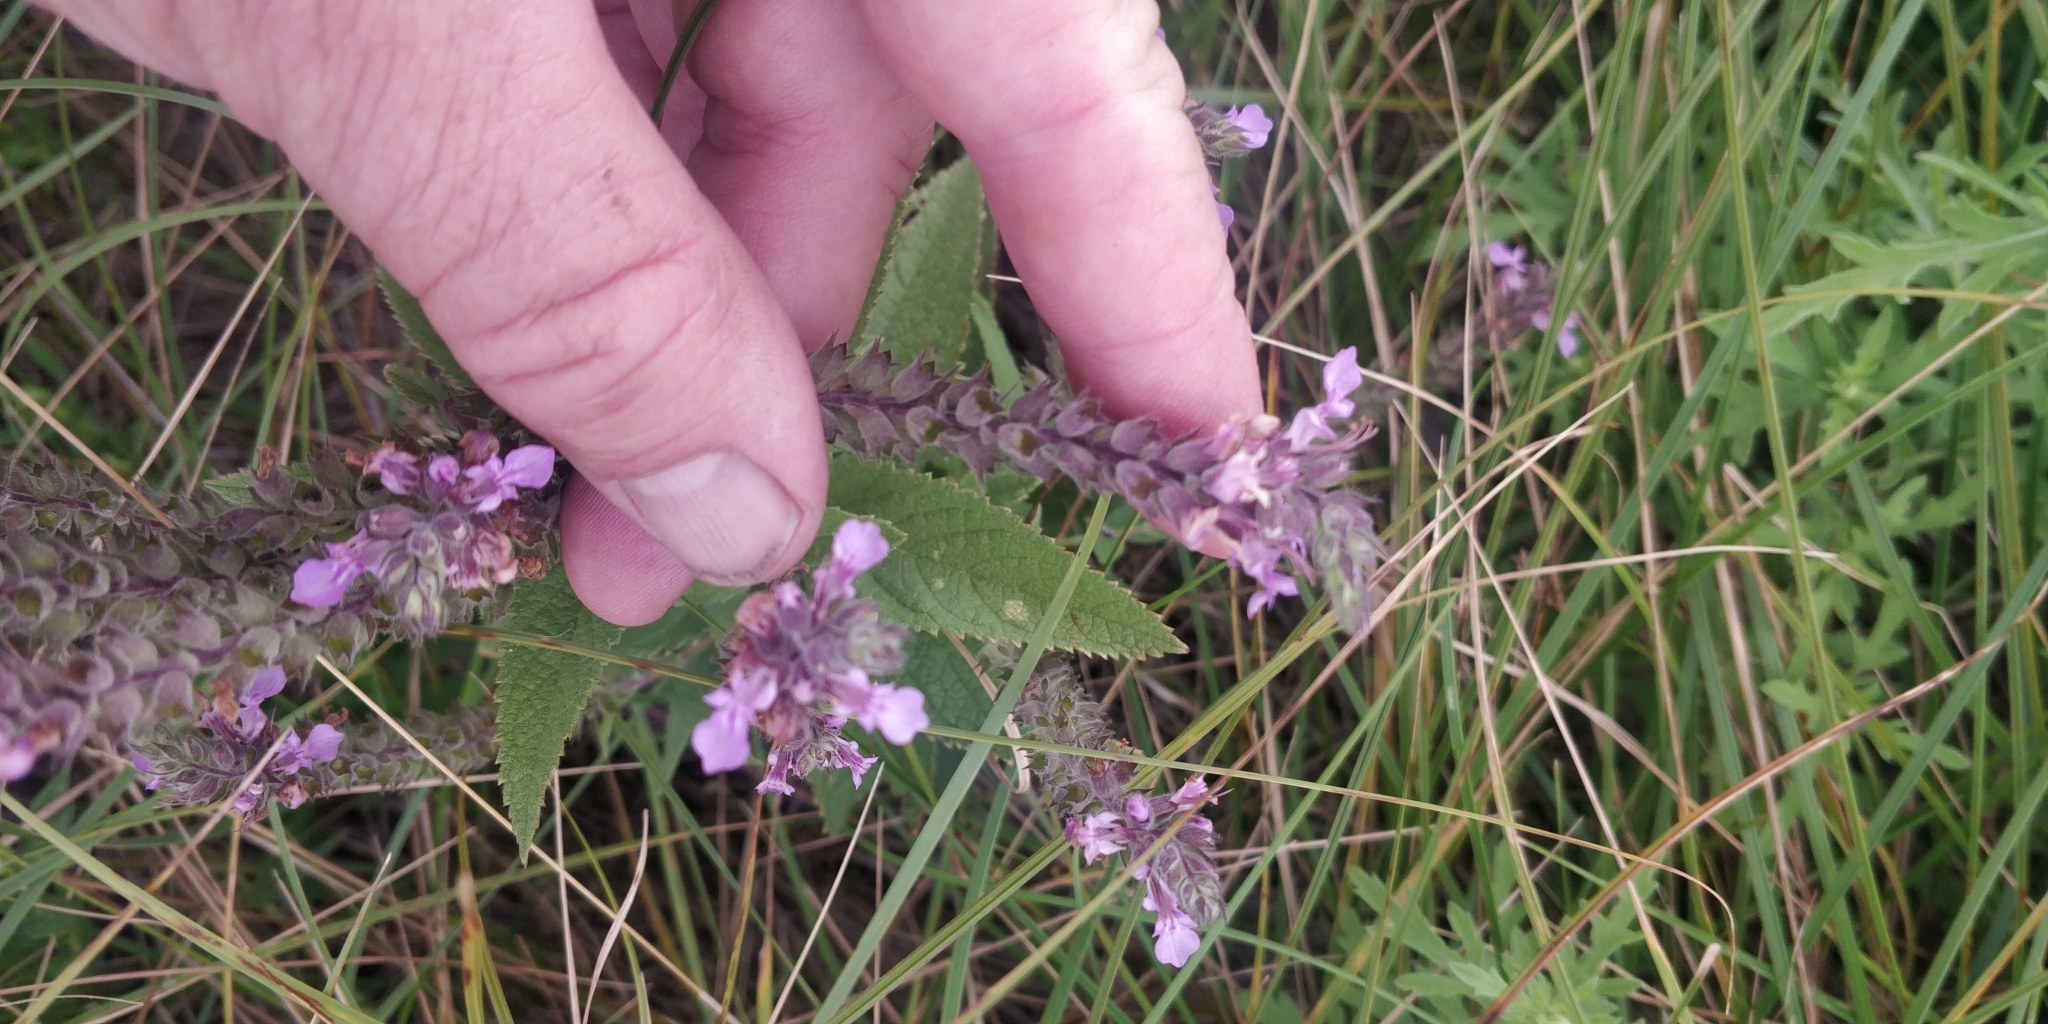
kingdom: Plantae
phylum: Tracheophyta
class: Magnoliopsida
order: Lamiales
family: Lamiaceae
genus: Teucrium
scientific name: Teucrium canadense
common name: American germander
